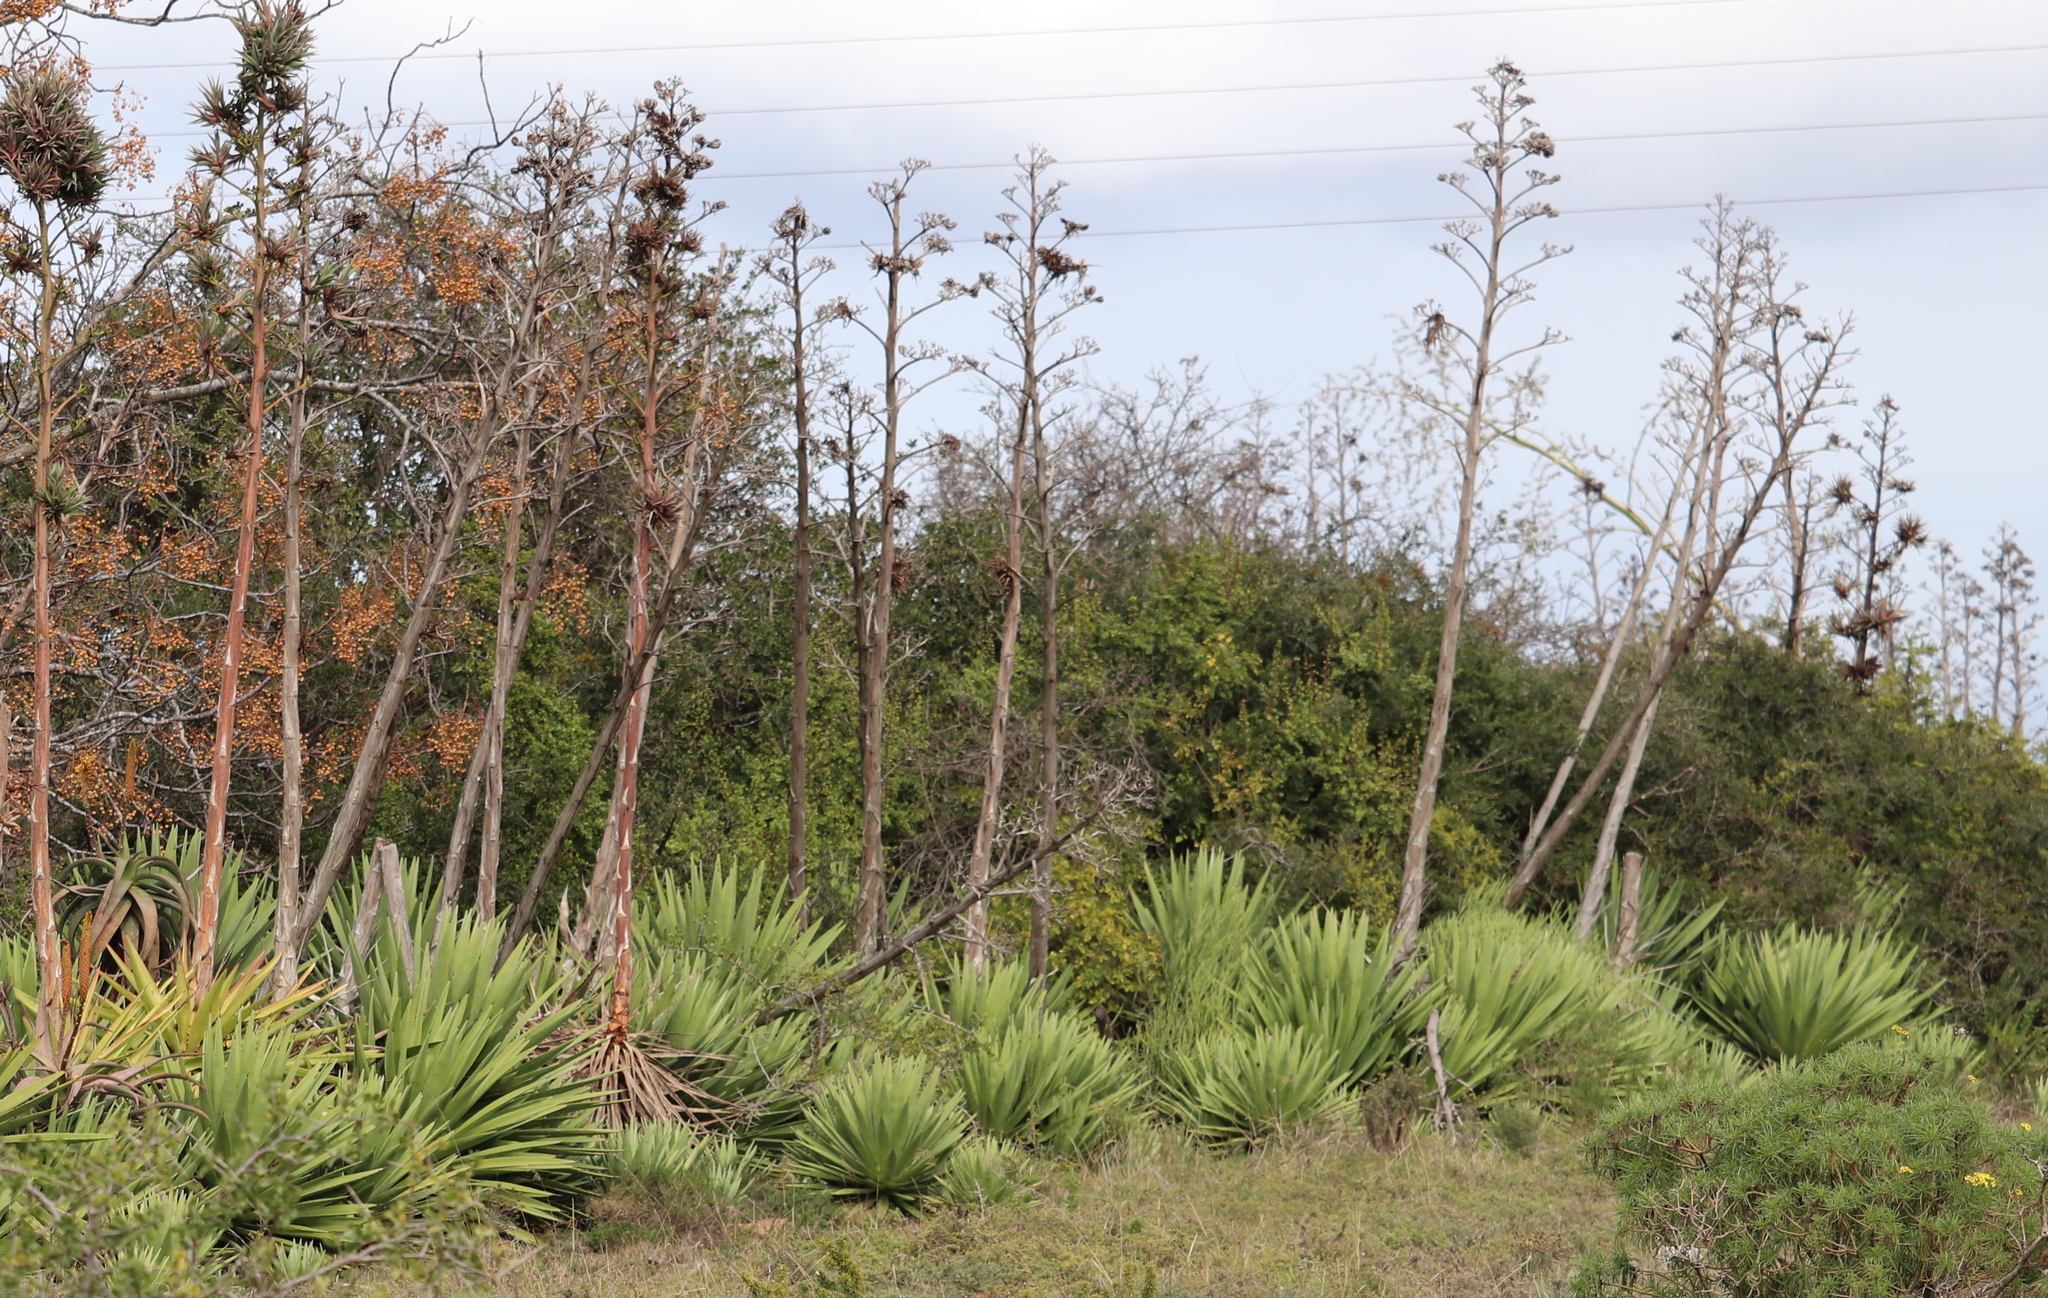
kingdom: Plantae
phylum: Tracheophyta
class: Liliopsida
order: Asparagales
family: Asparagaceae
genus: Agave
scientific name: Agave sisalana
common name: Sisal hemp
